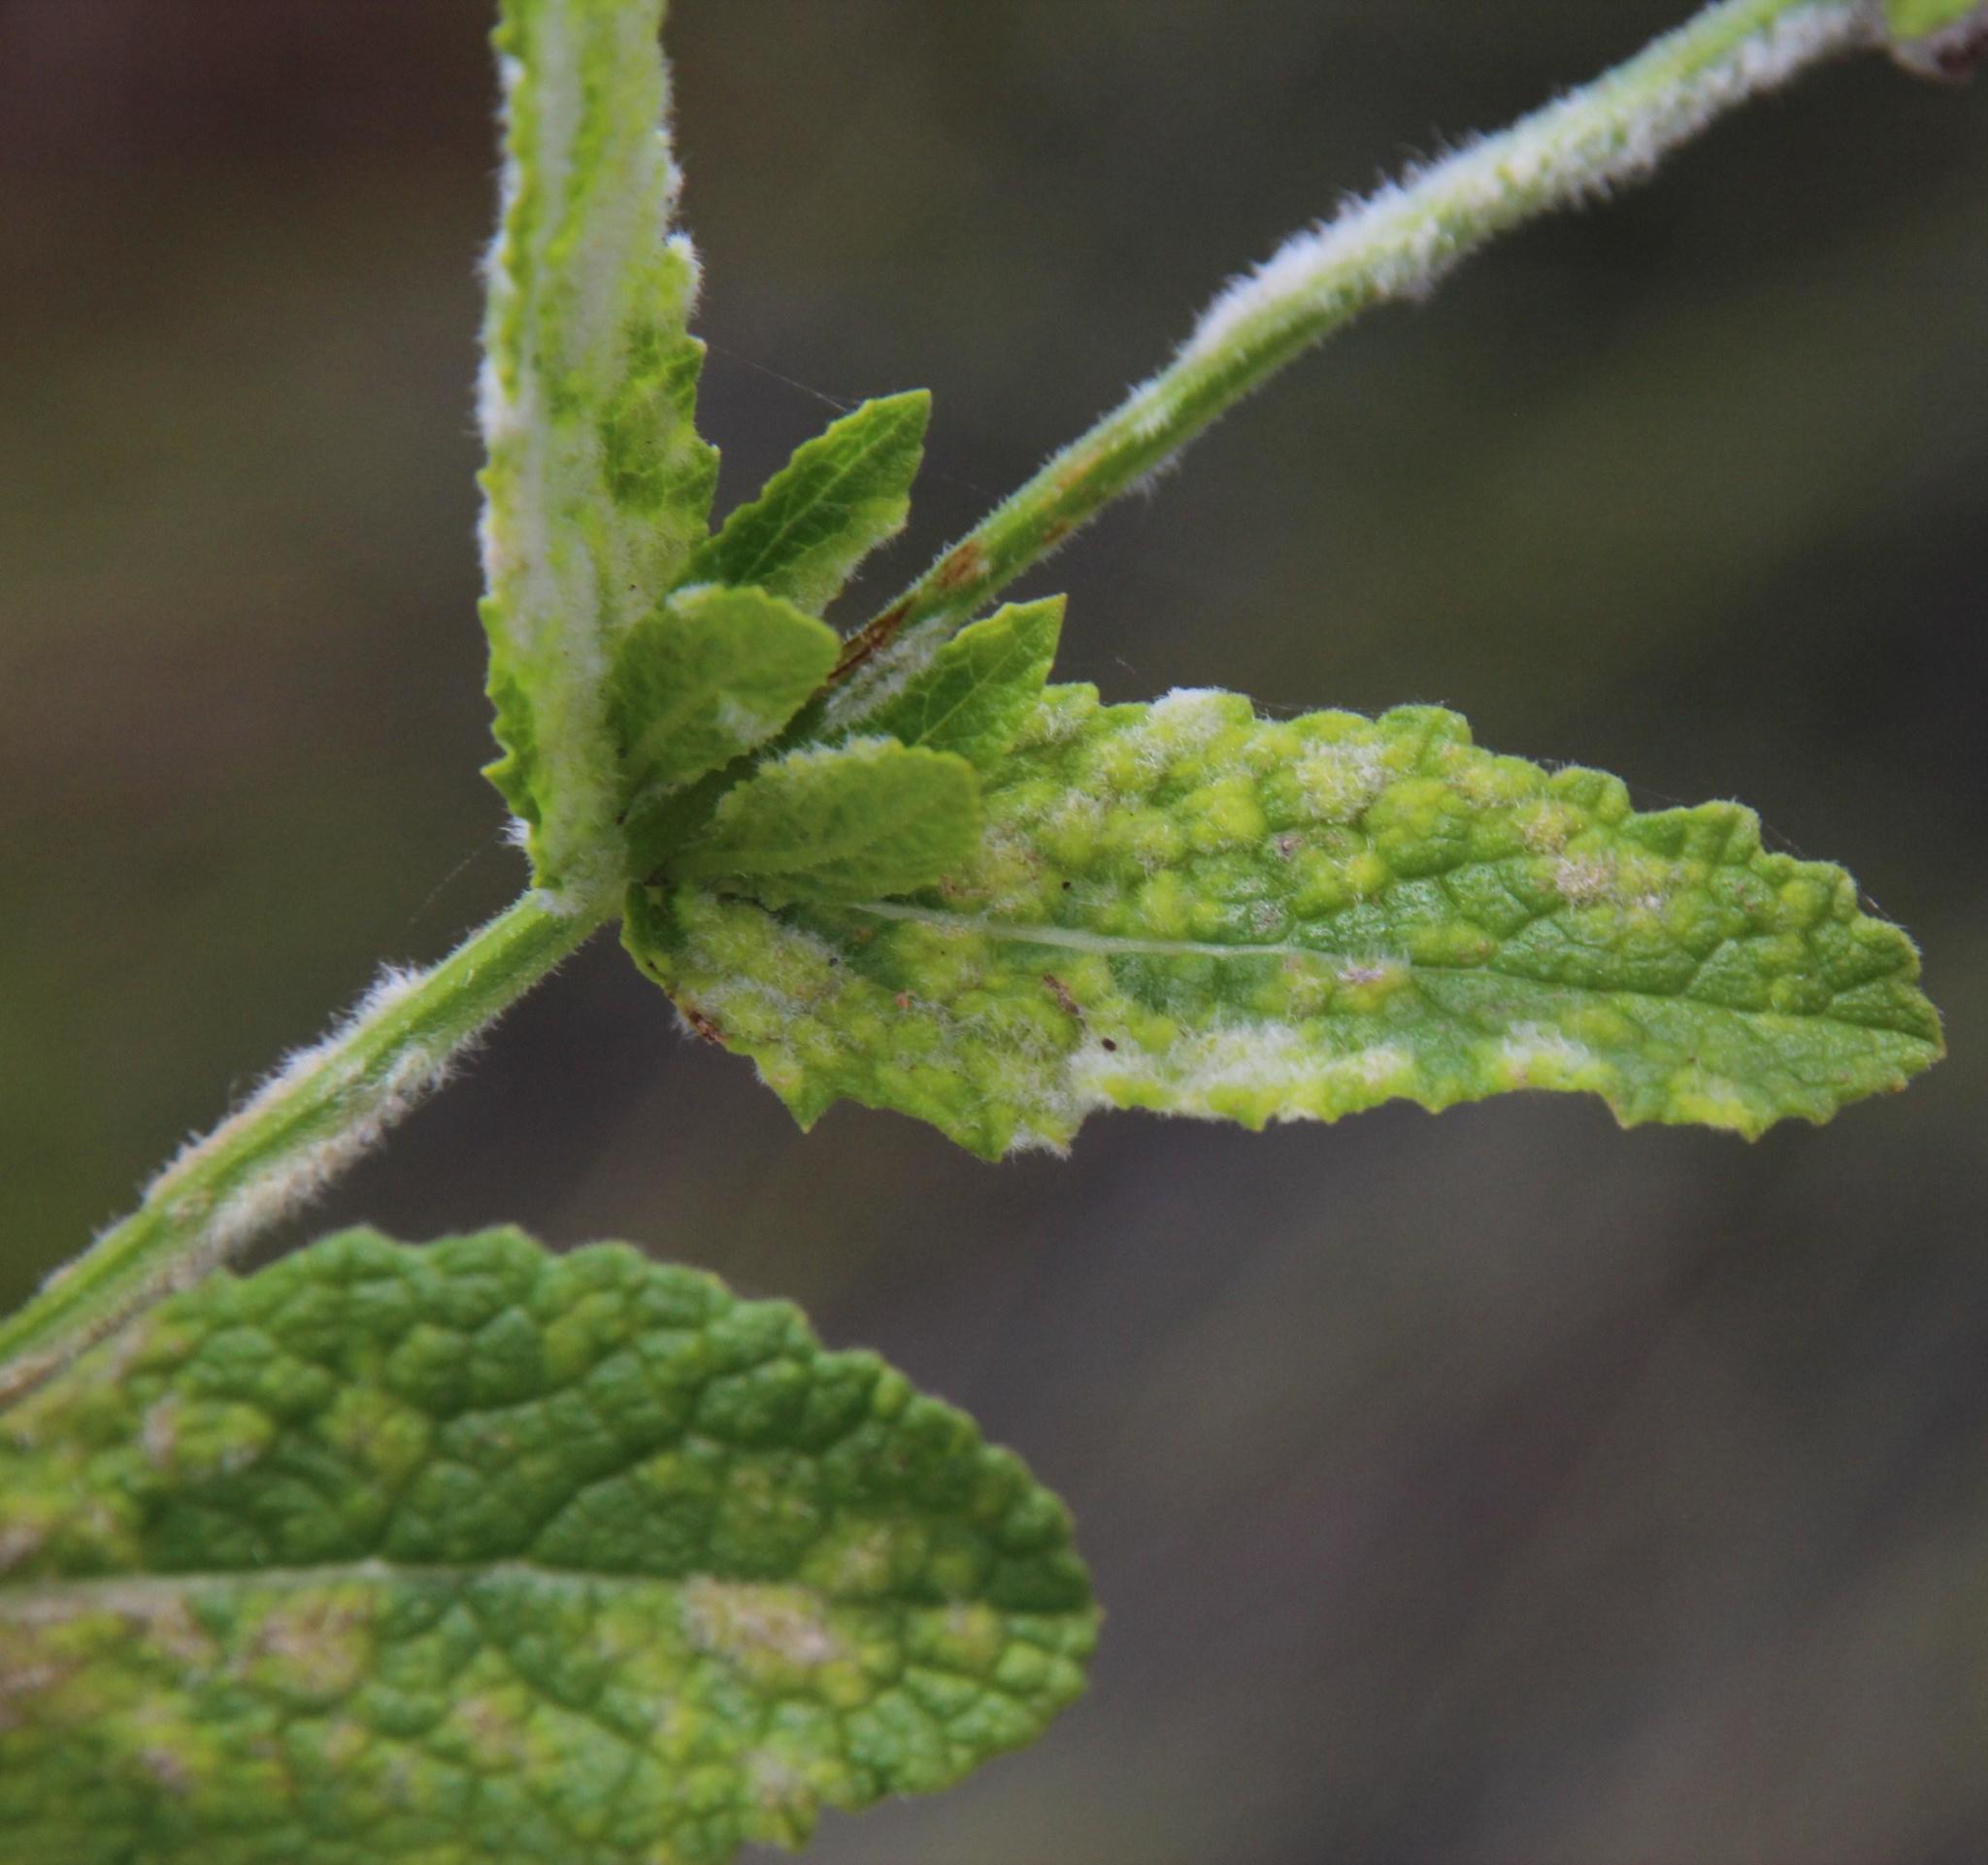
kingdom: Fungi
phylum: Ascomycota
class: Leotiomycetes
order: Helotiales
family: Erysiphaceae
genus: Leveillula
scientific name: Leveillula duriaei
